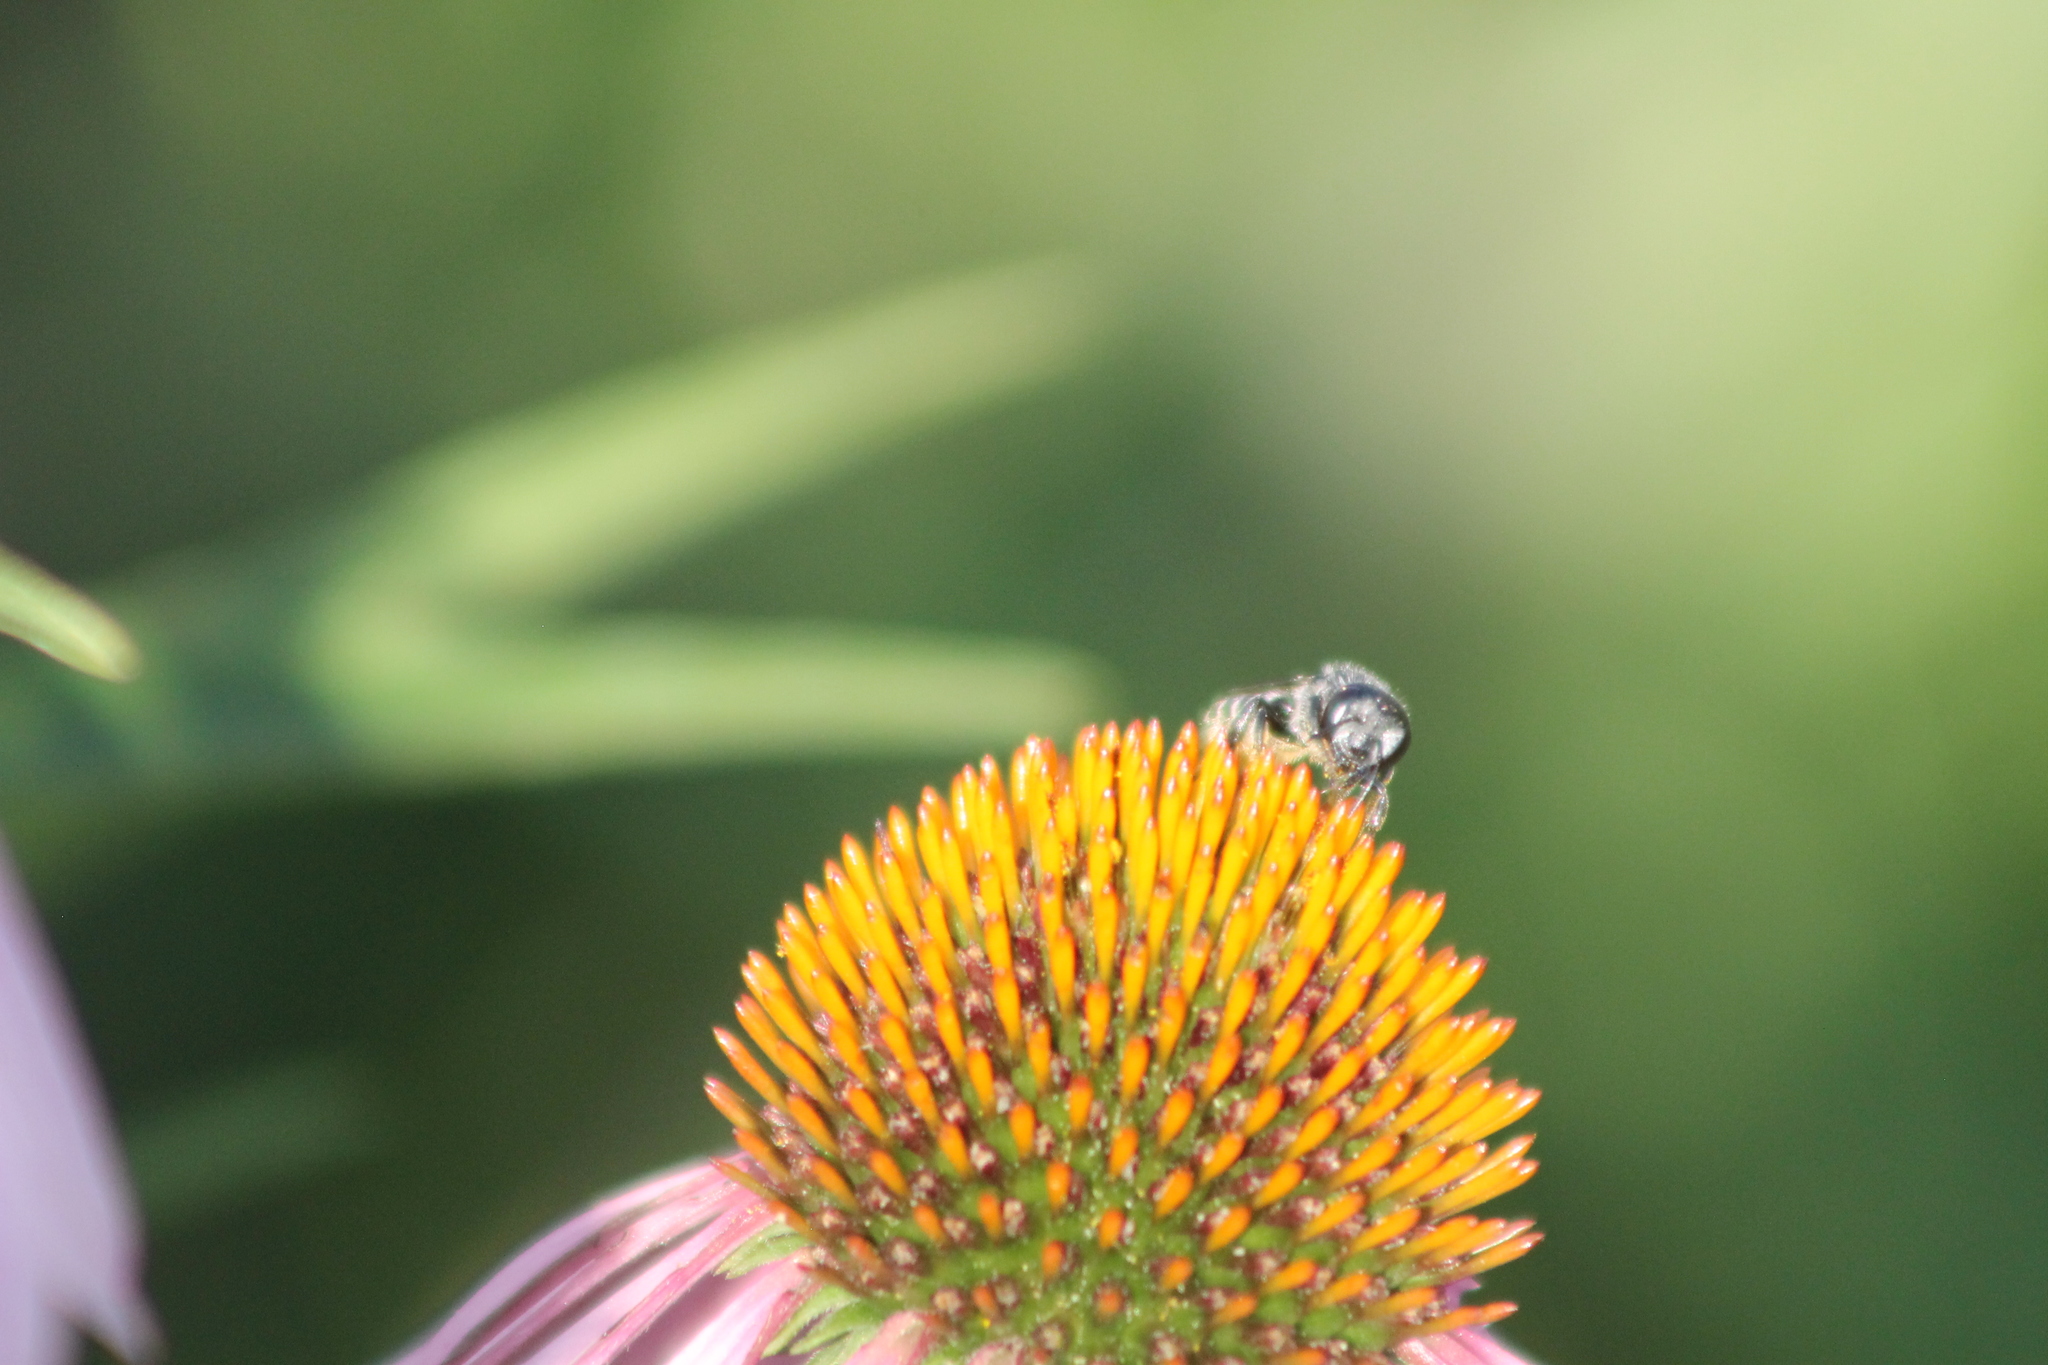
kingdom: Animalia
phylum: Arthropoda
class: Insecta
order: Hymenoptera
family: Megachilidae
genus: Megachile
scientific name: Megachile montivaga
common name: Silver-tailed petalcutter bee
